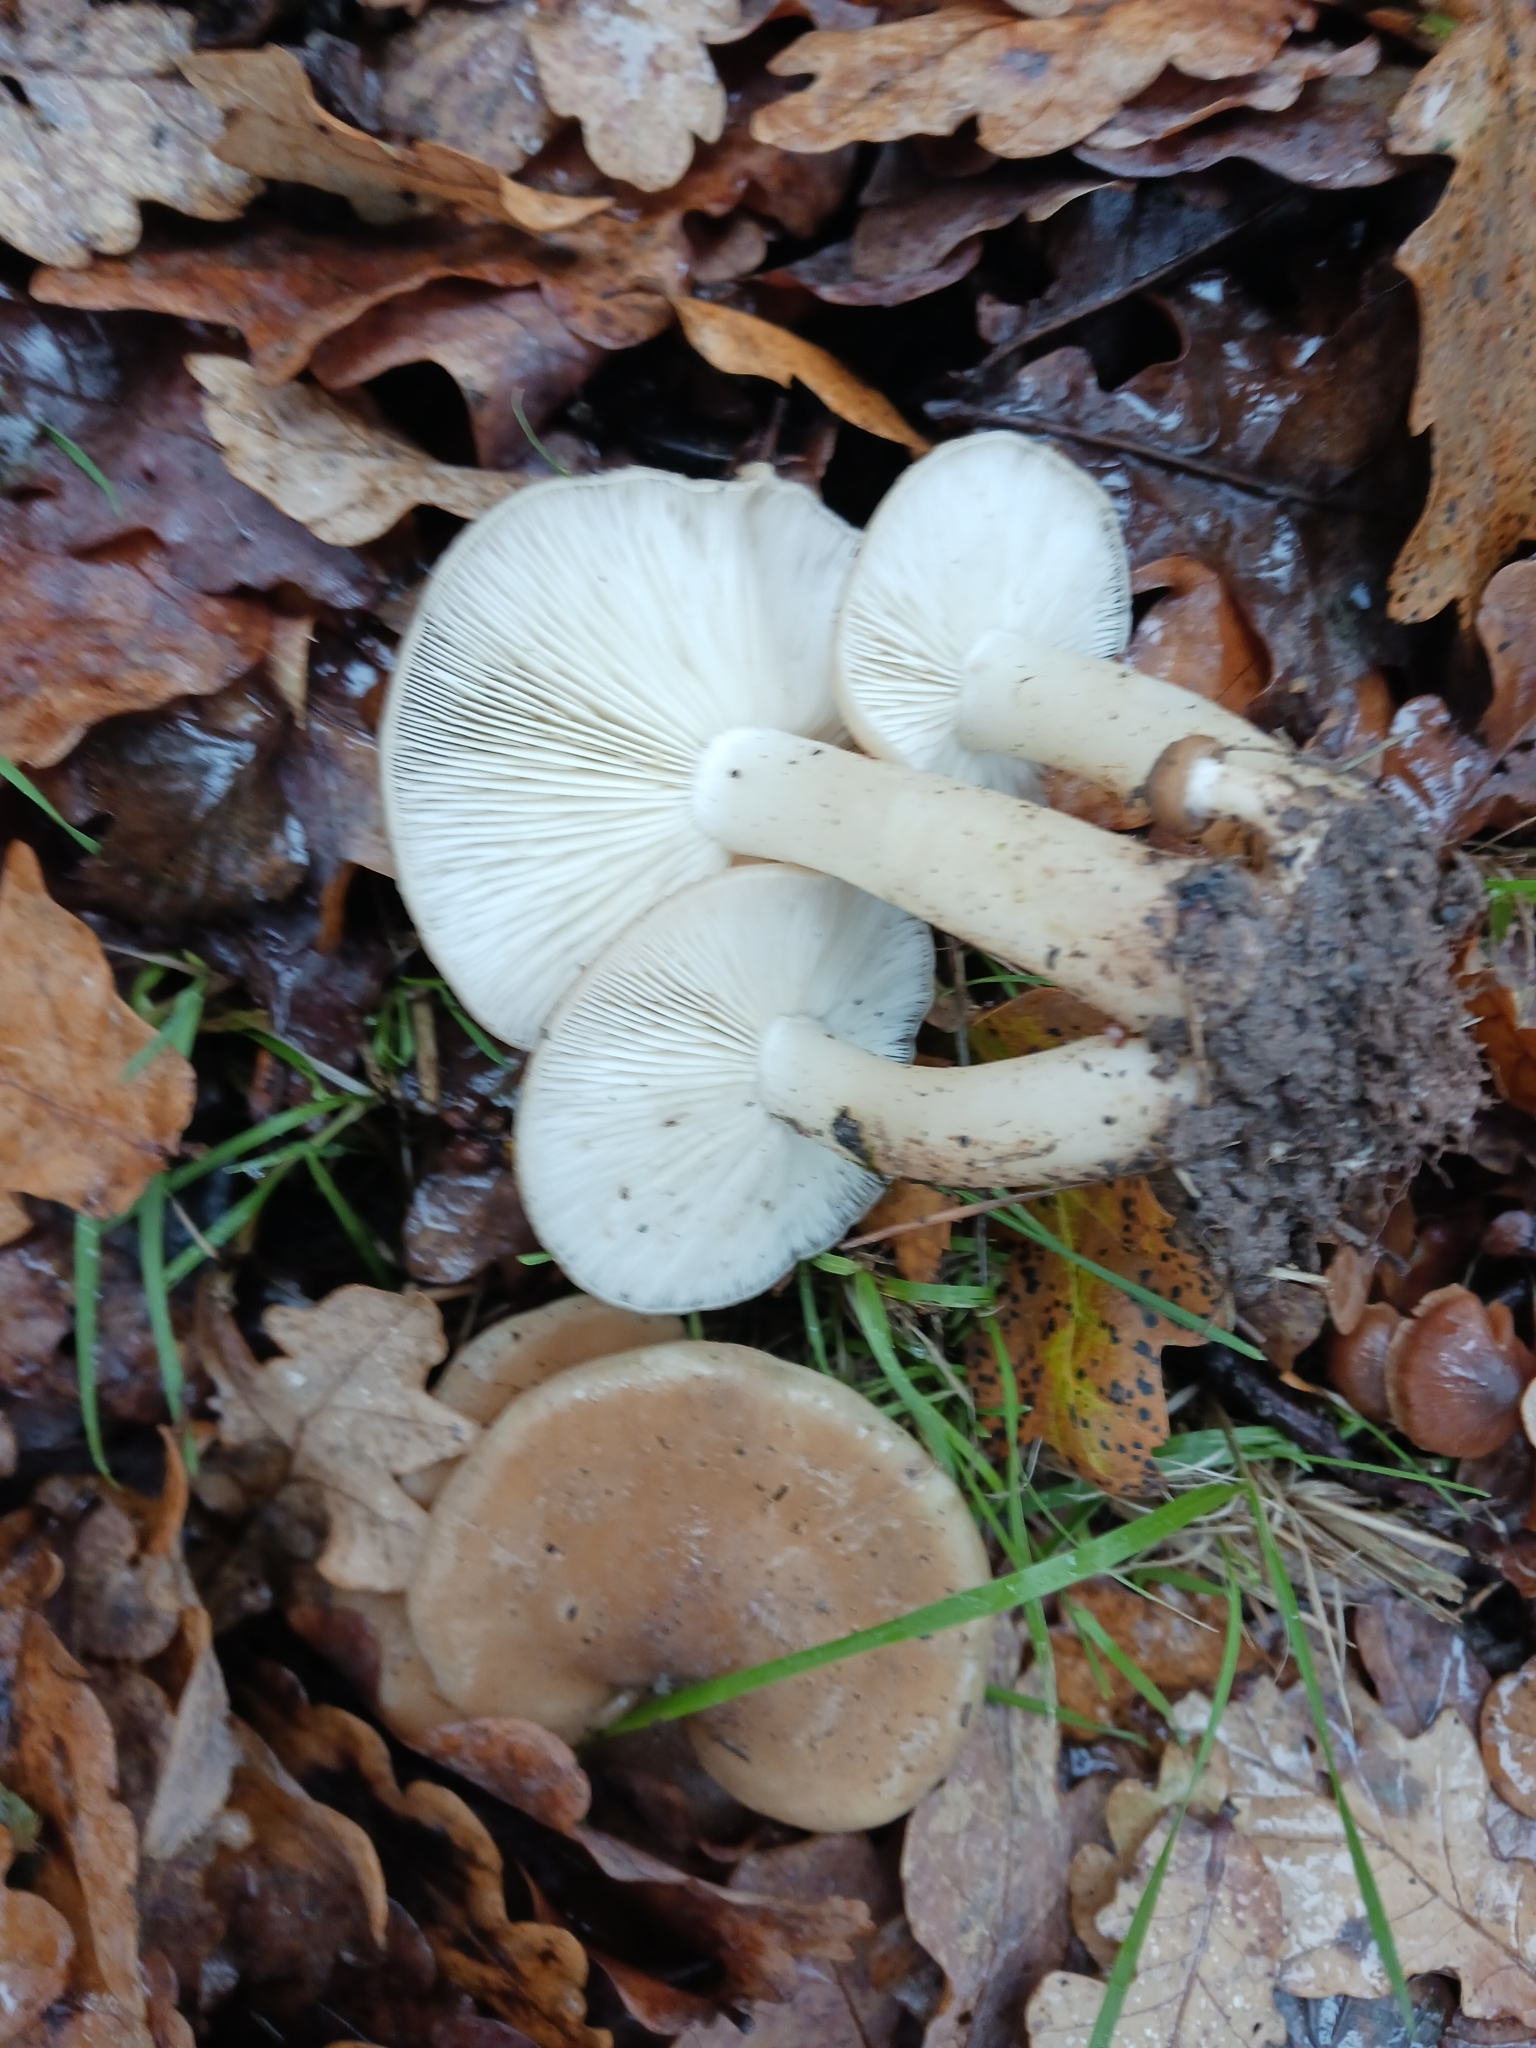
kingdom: Fungi
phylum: Basidiomycota
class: Agaricomycetes
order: Agaricales
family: Lyophyllaceae
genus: Lyophyllum
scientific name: Lyophyllum decastes
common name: Clustered domecap
